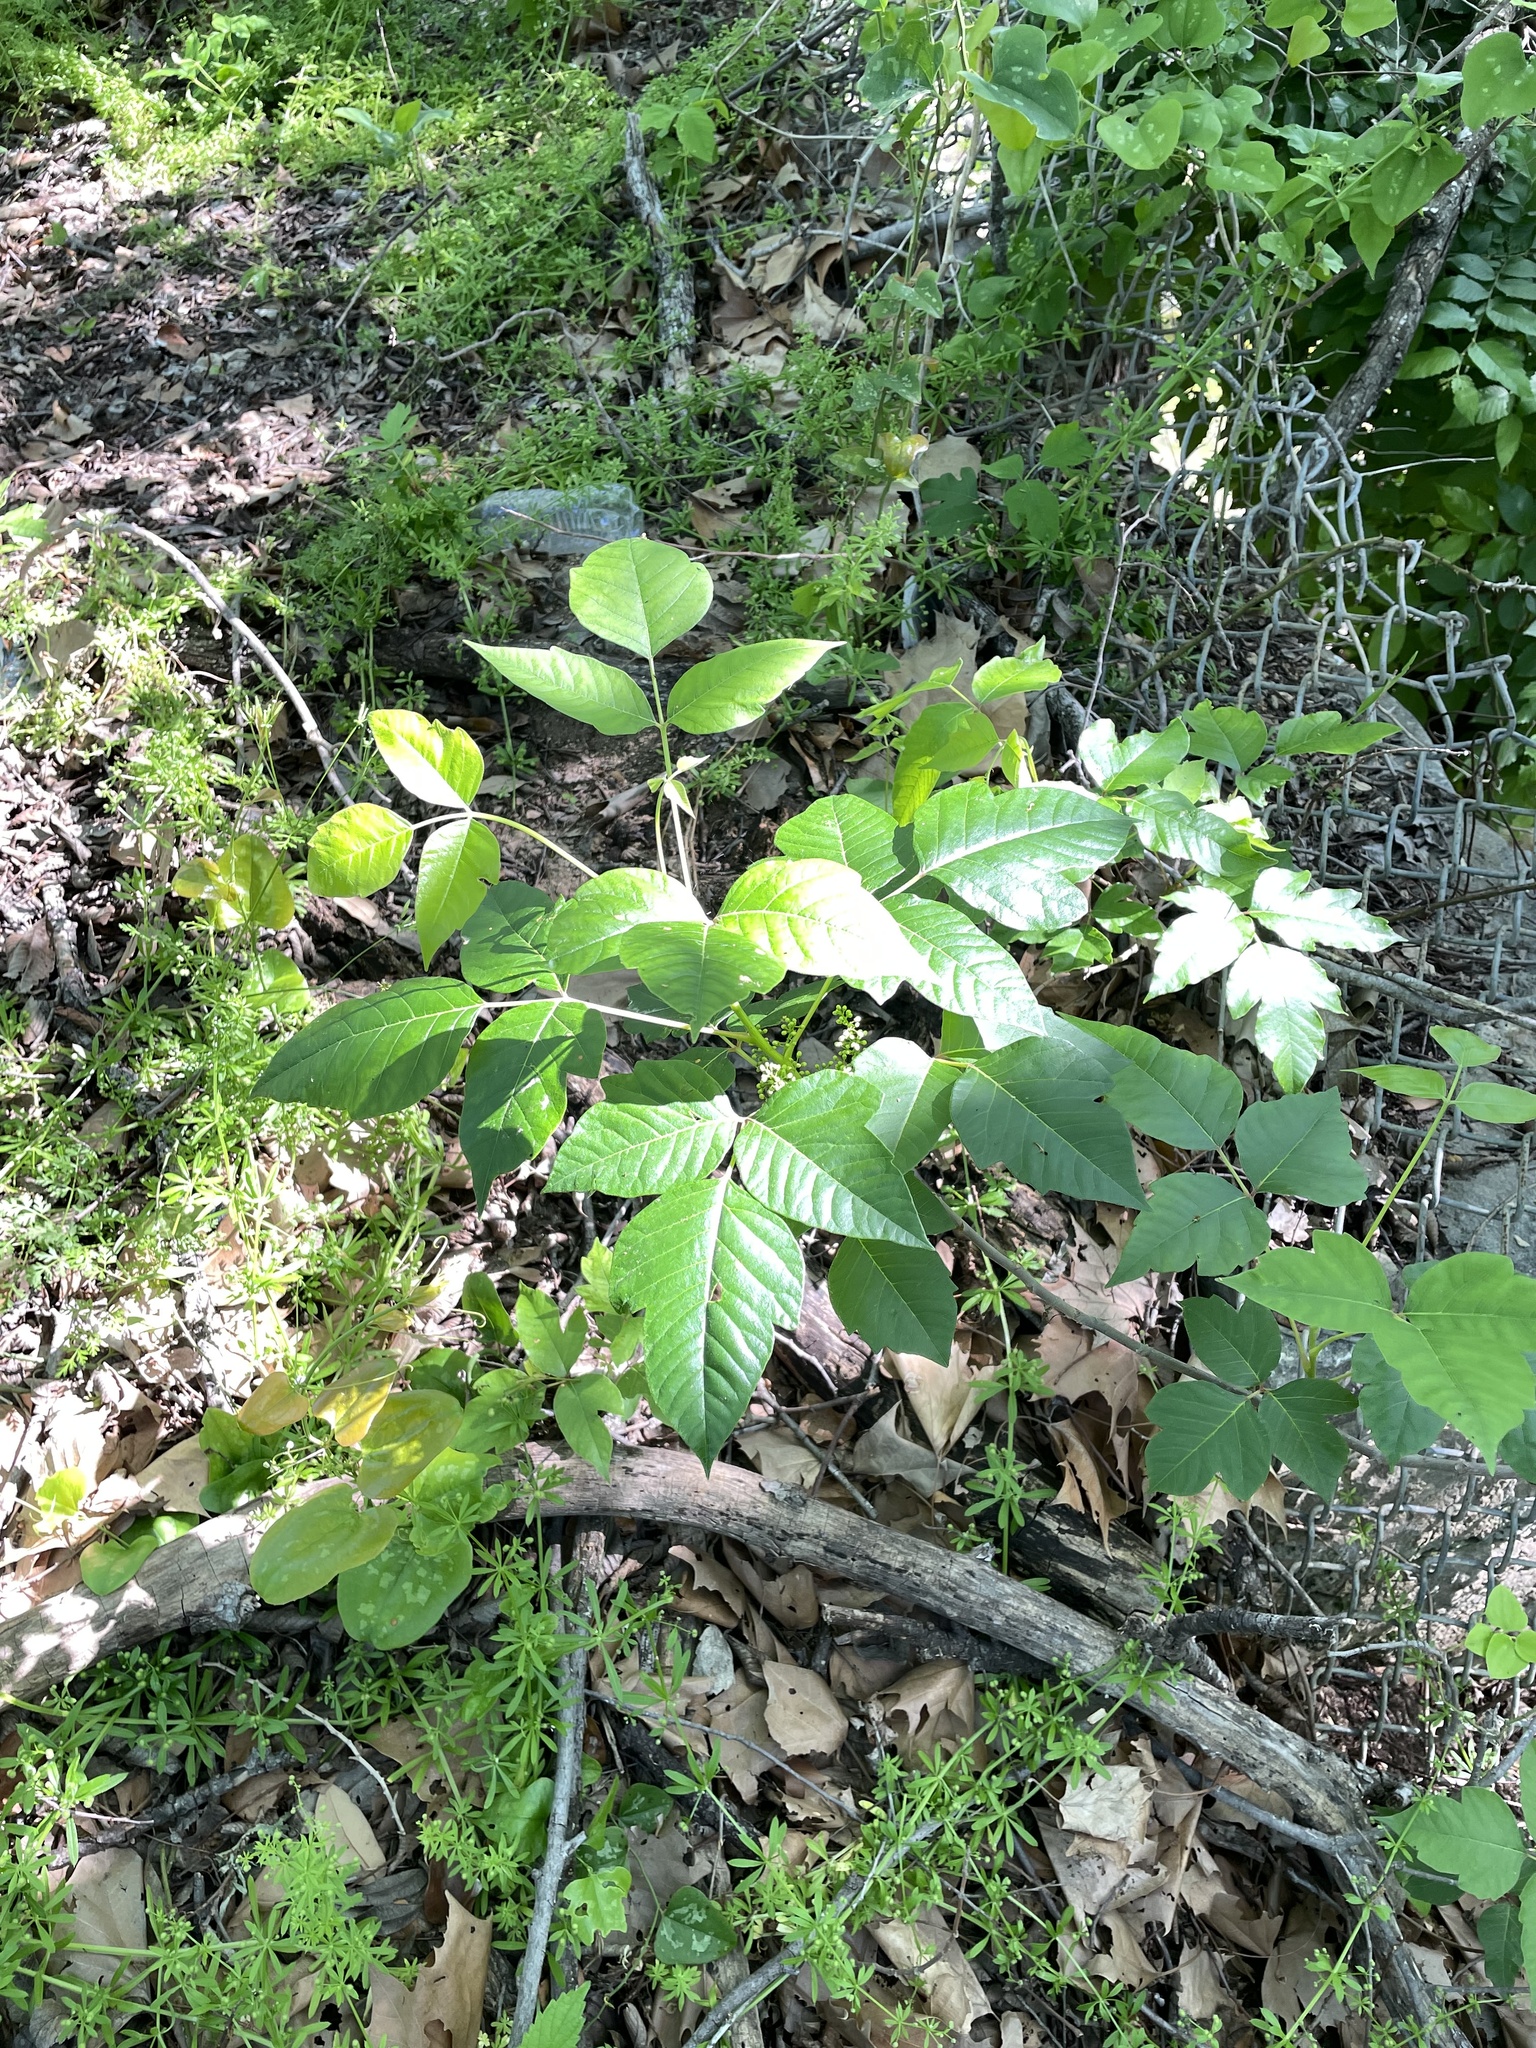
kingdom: Plantae
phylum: Tracheophyta
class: Magnoliopsida
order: Sapindales
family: Anacardiaceae
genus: Toxicodendron
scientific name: Toxicodendron radicans
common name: Poison ivy
